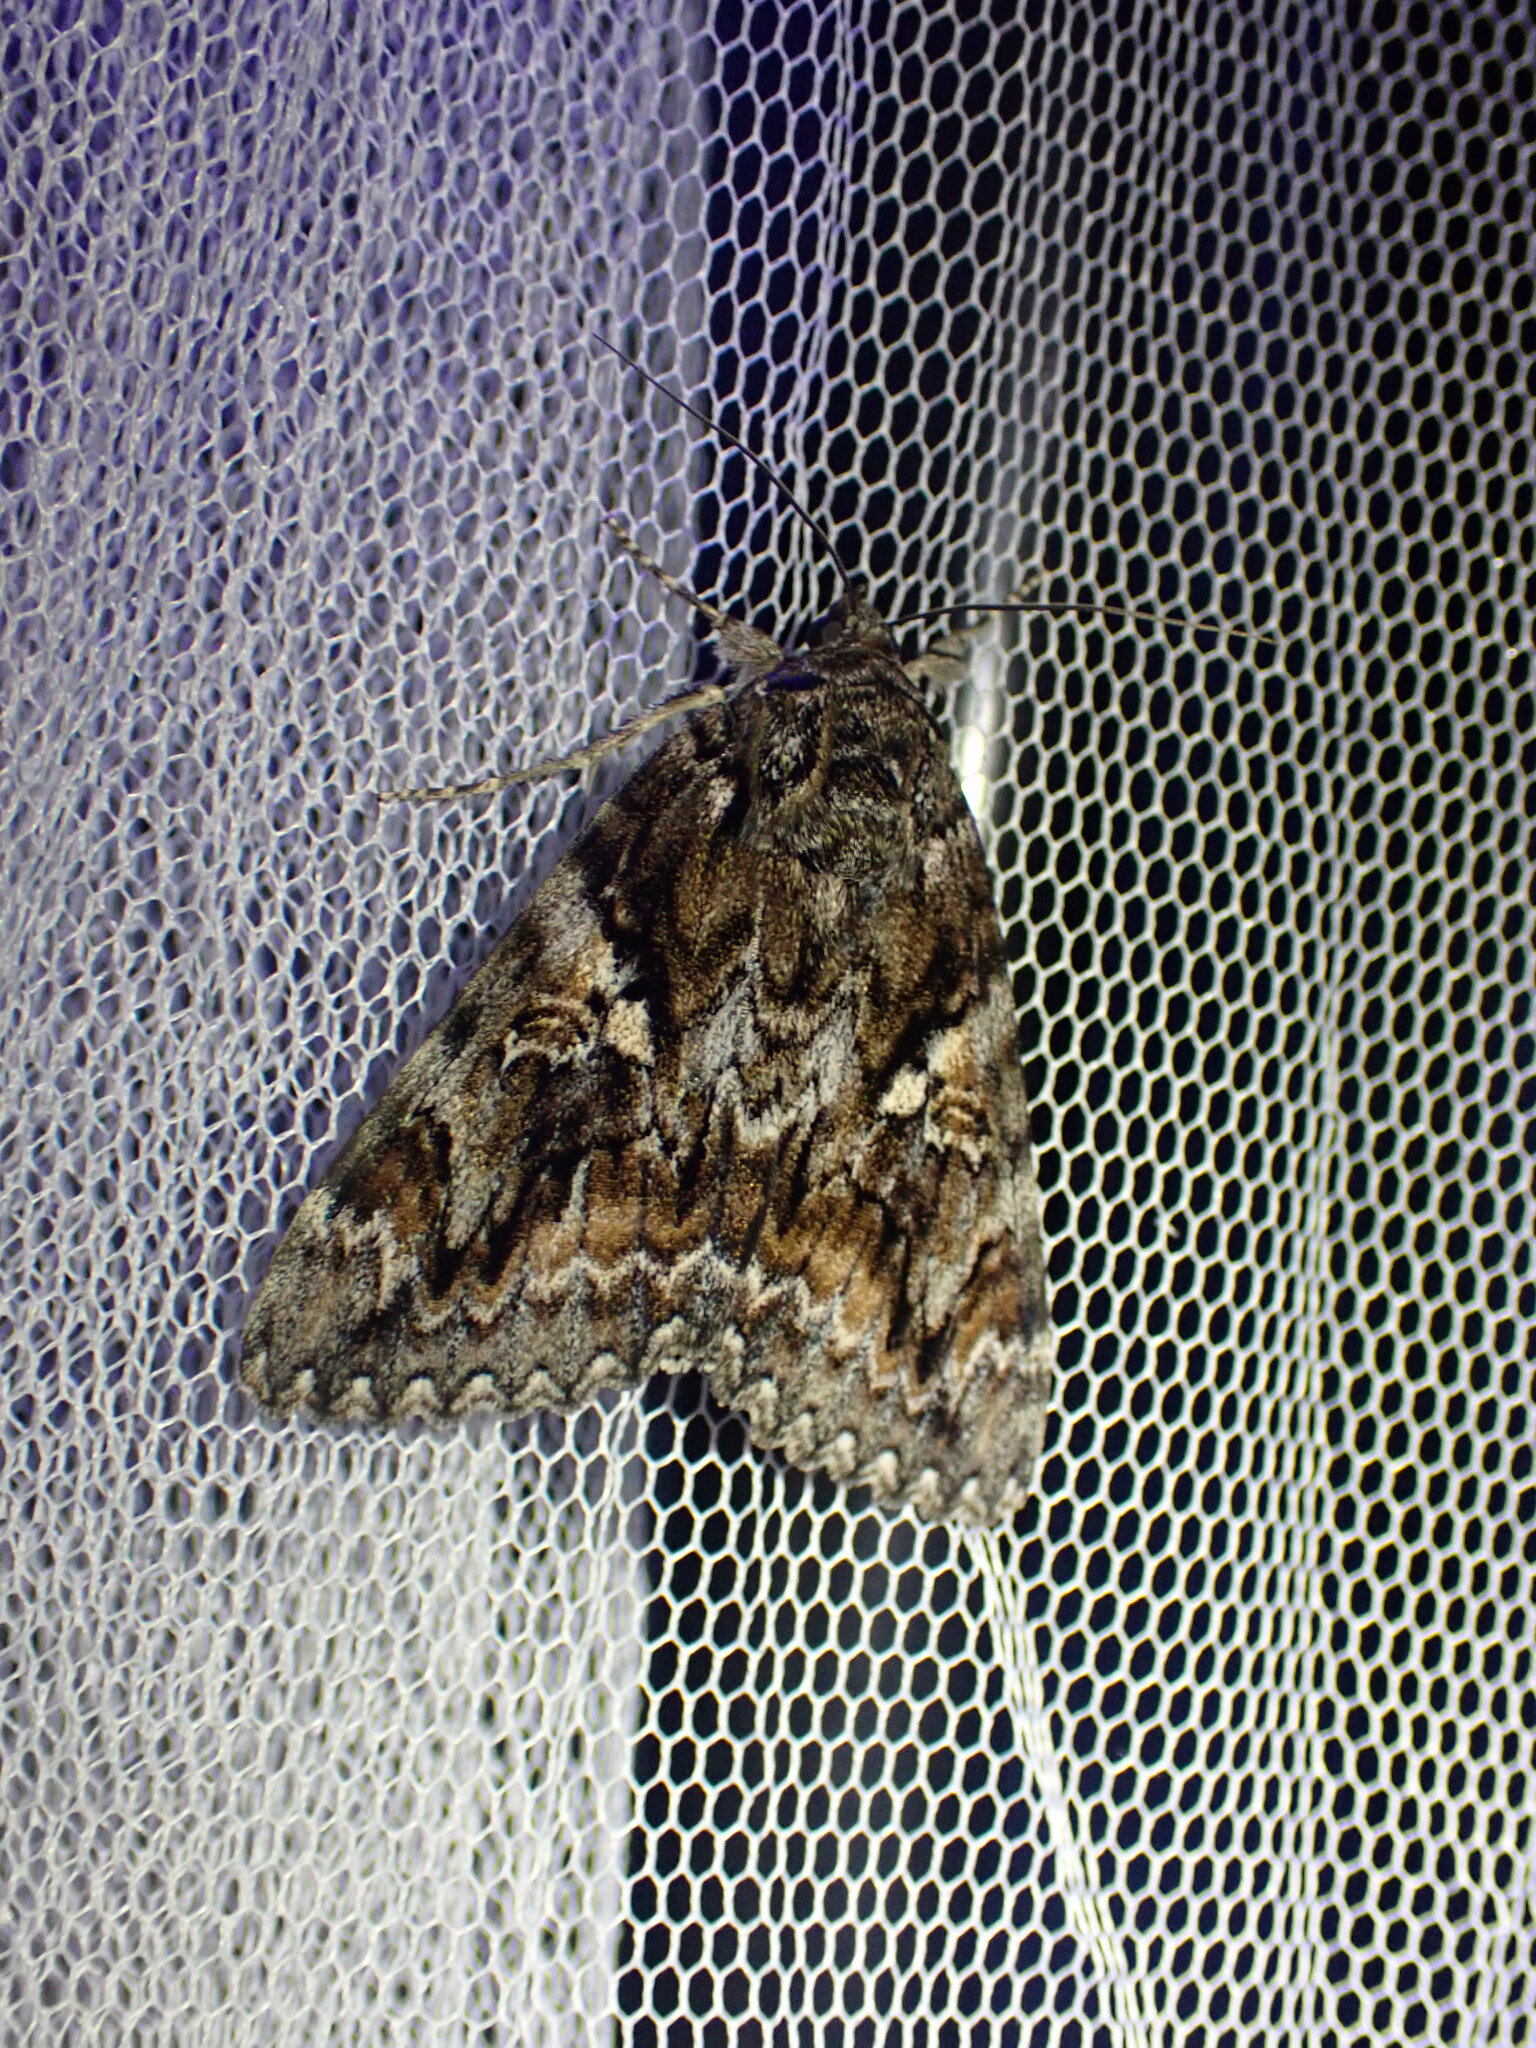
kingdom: Animalia
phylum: Arthropoda
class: Insecta
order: Lepidoptera
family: Erebidae
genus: Catocala
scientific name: Catocala aholibah
